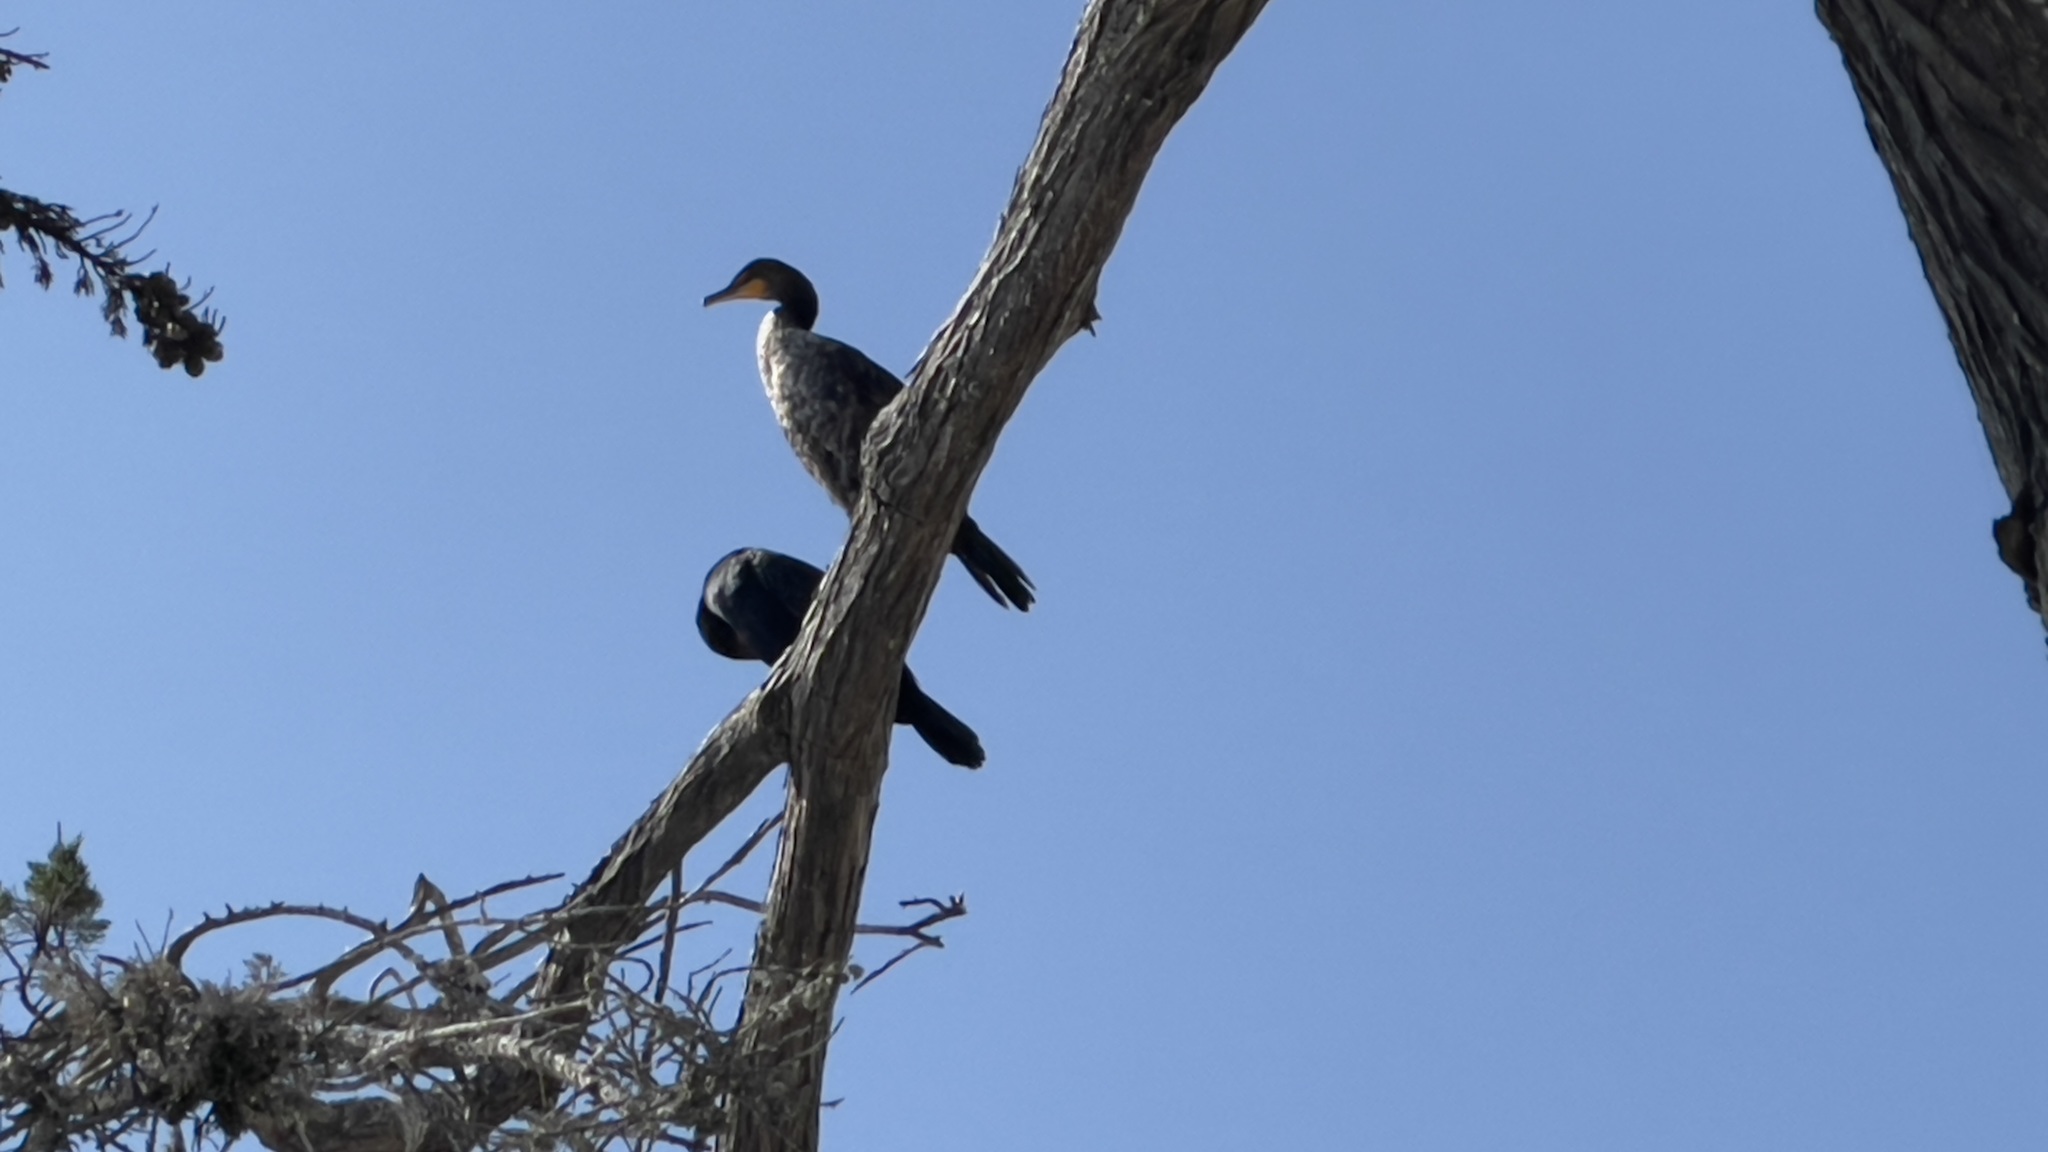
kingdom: Animalia
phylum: Chordata
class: Aves
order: Suliformes
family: Phalacrocoracidae
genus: Phalacrocorax
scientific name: Phalacrocorax auritus
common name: Double-crested cormorant
